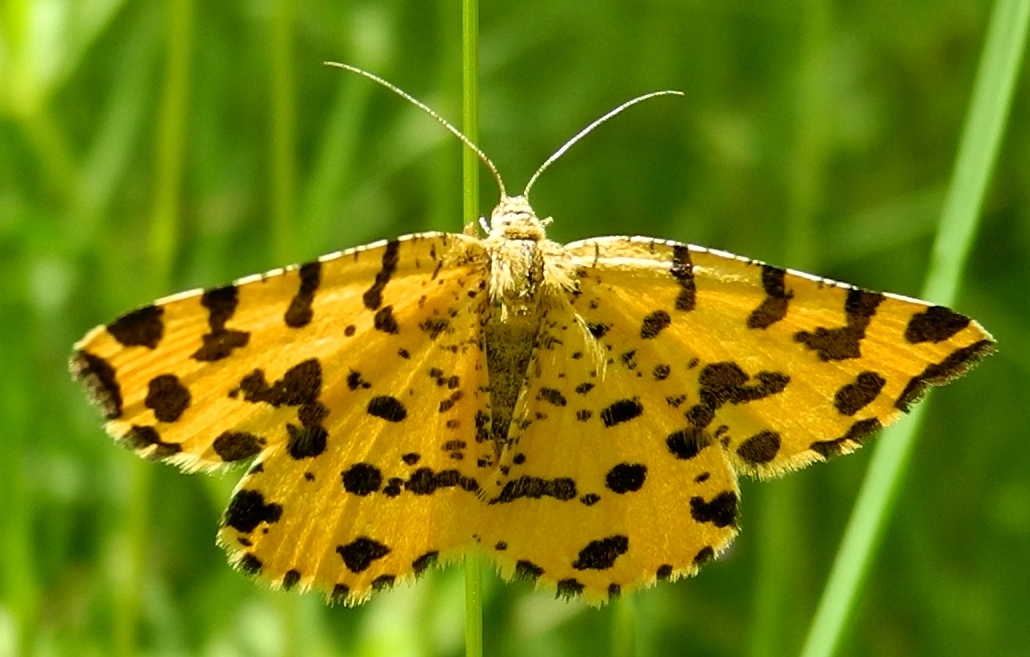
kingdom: Animalia
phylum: Arthropoda
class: Insecta
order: Lepidoptera
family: Geometridae
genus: Pseudopanthera
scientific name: Pseudopanthera macularia
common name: Speckled yellow
